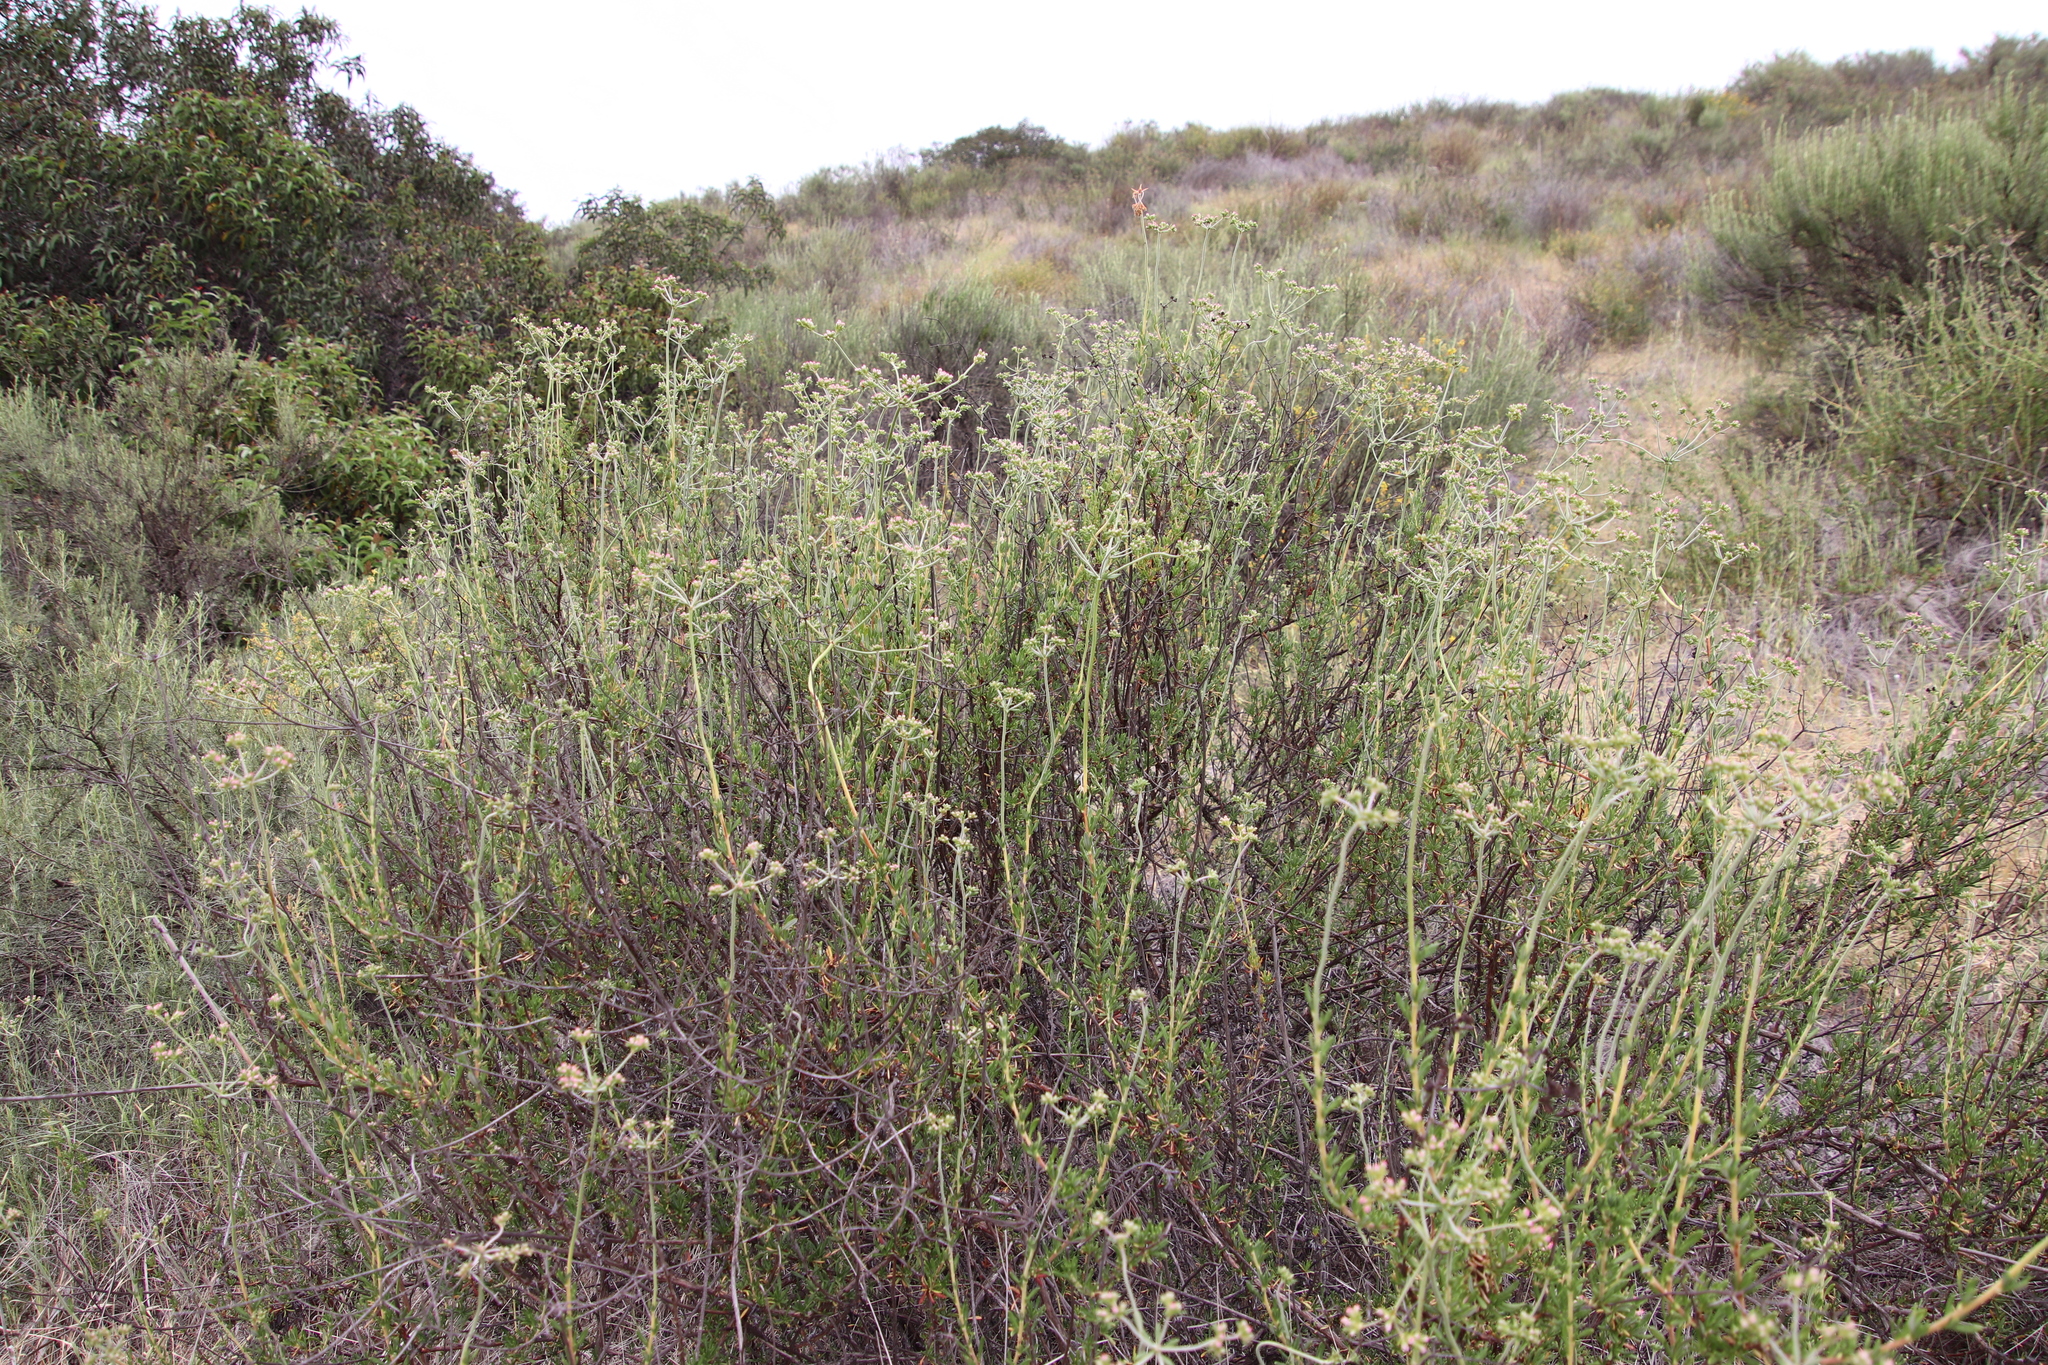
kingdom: Plantae
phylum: Tracheophyta
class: Magnoliopsida
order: Caryophyllales
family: Polygonaceae
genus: Eriogonum
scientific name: Eriogonum fasciculatum
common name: California wild buckwheat
